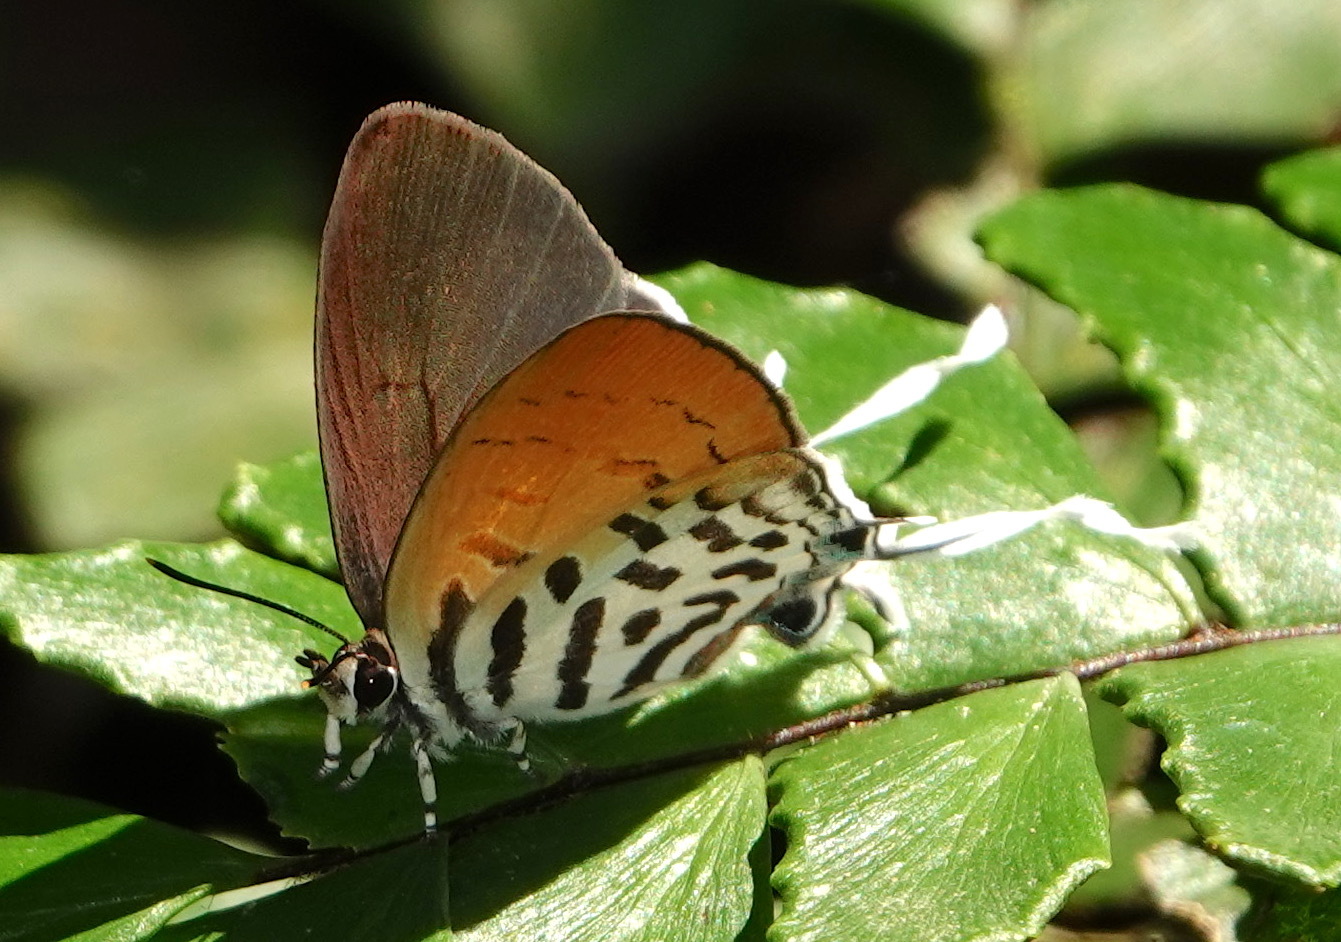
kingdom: Animalia
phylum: Arthropoda
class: Insecta
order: Lepidoptera
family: Lycaenidae
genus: Drupadia
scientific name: Drupadia ravindra
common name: Common posy
